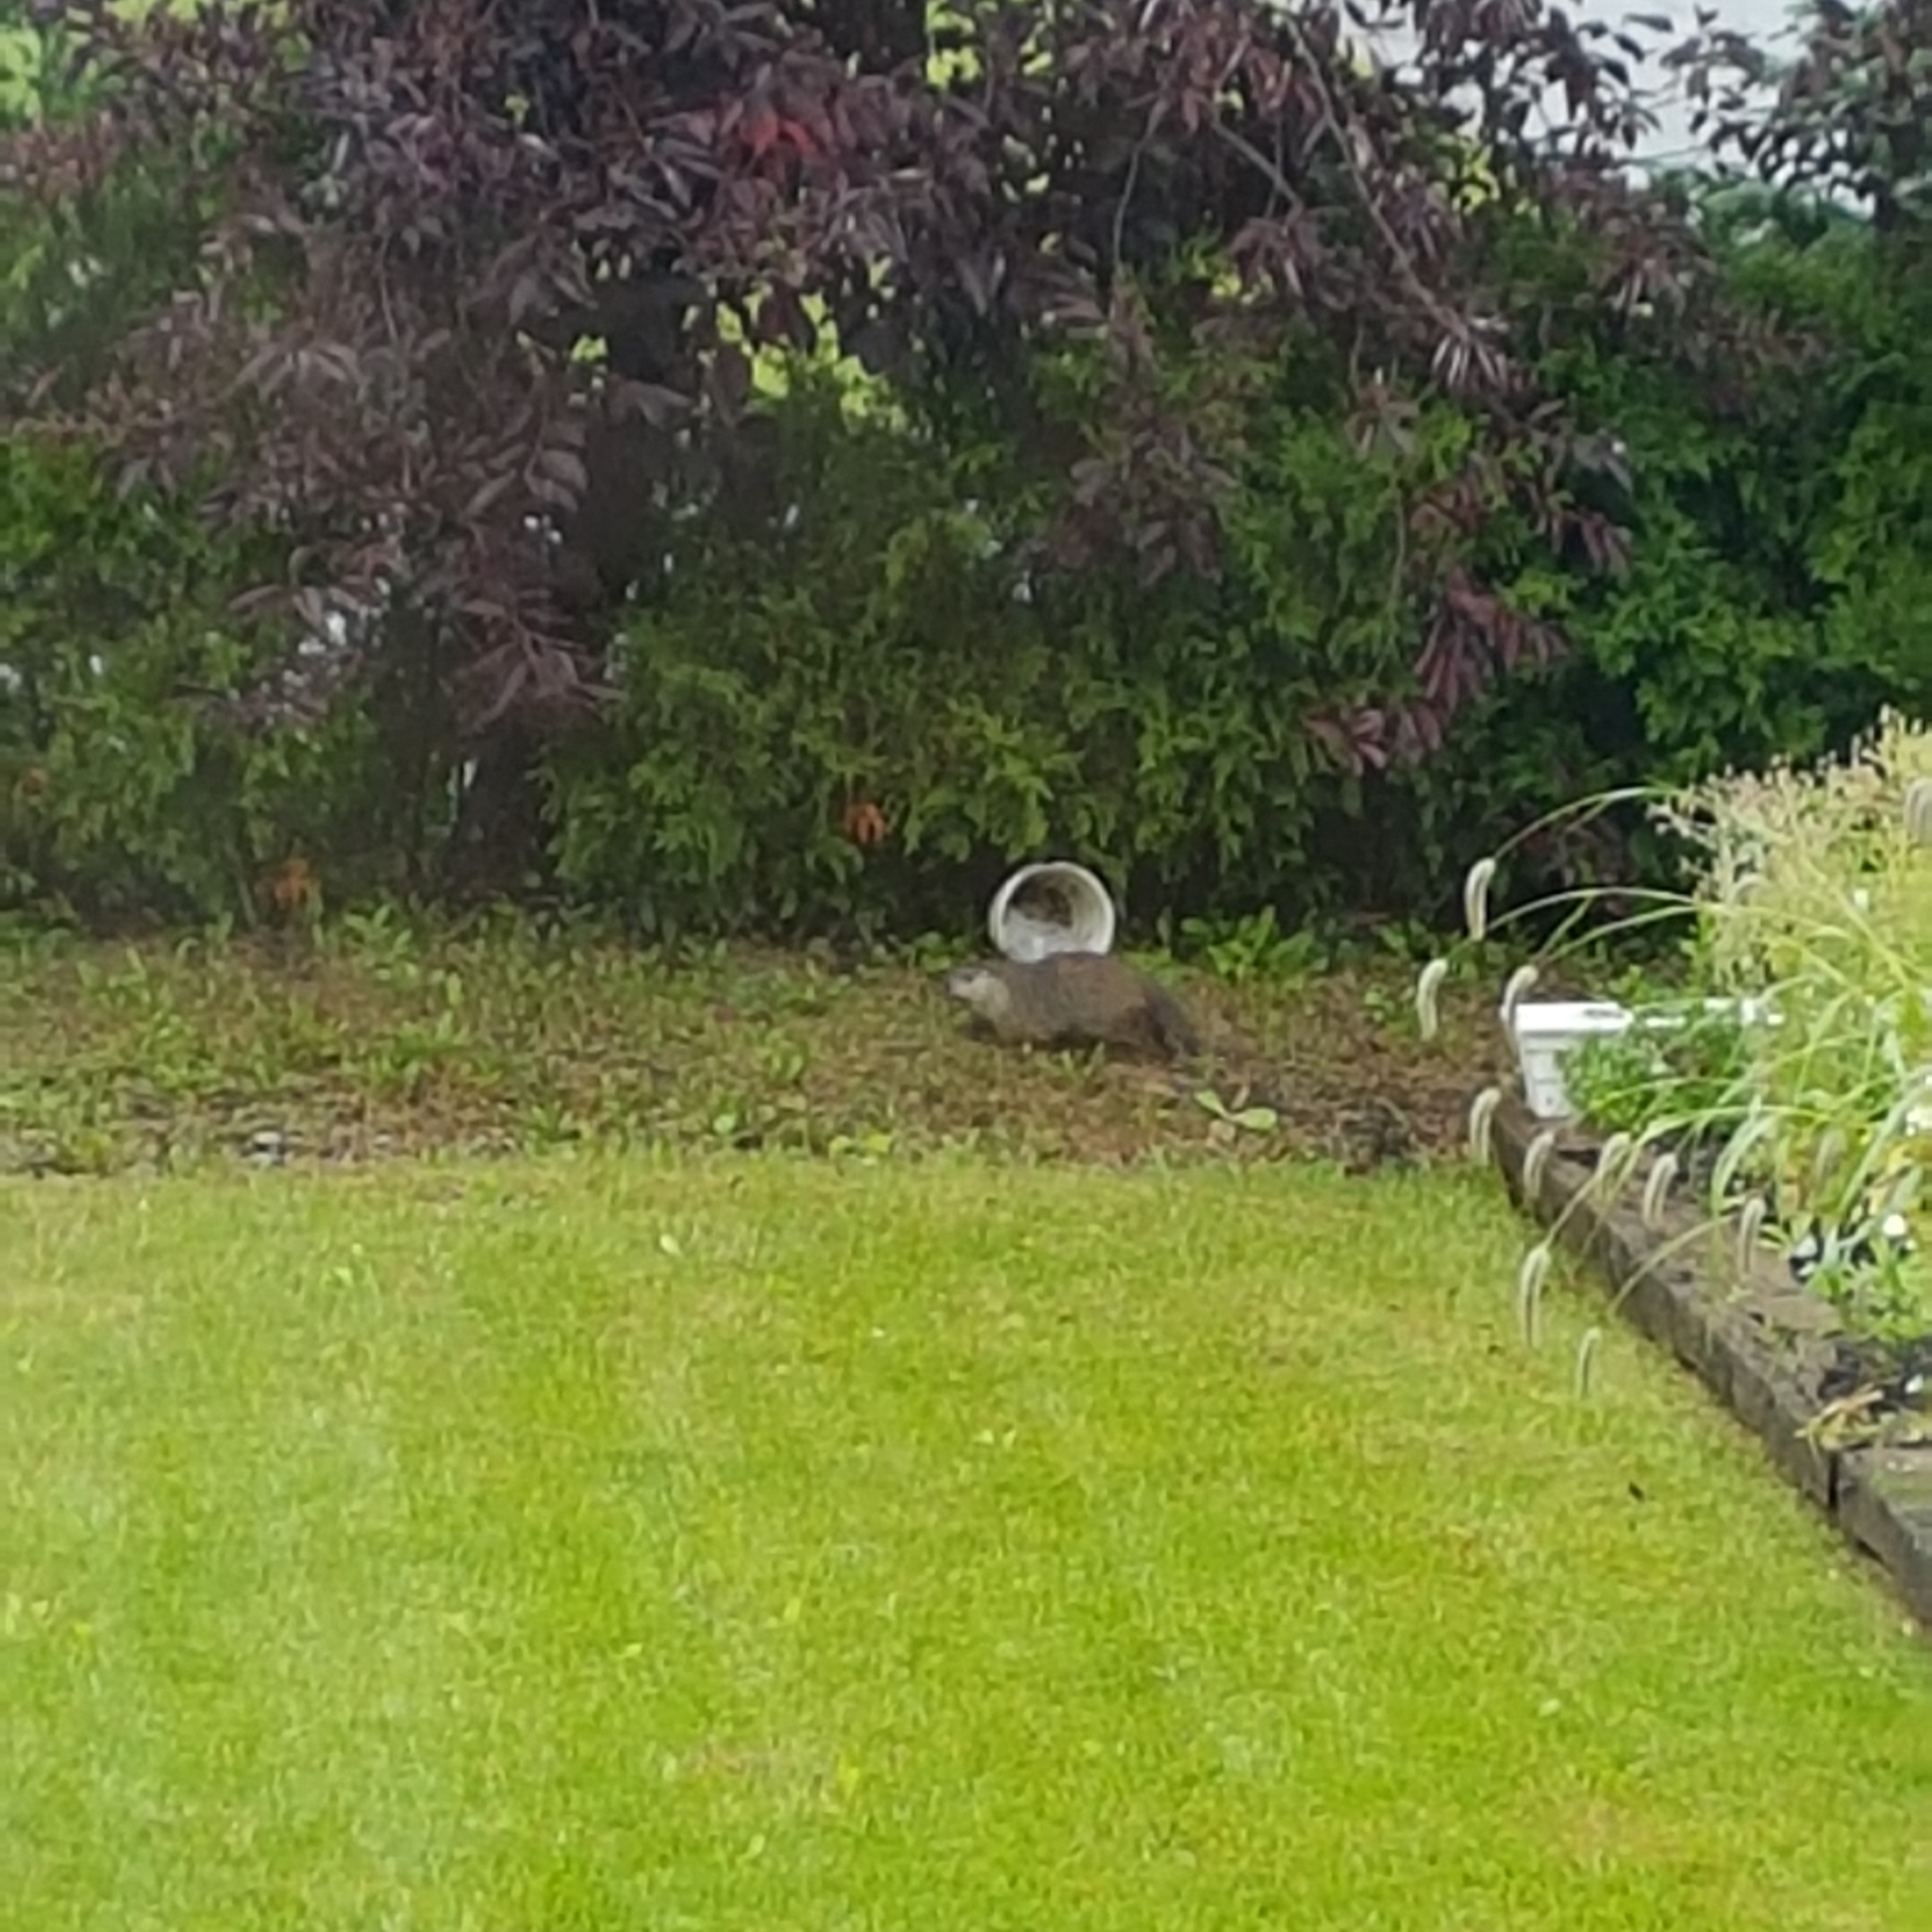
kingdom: Animalia
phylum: Chordata
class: Mammalia
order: Rodentia
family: Sciuridae
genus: Marmota
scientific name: Marmota monax
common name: Groundhog
